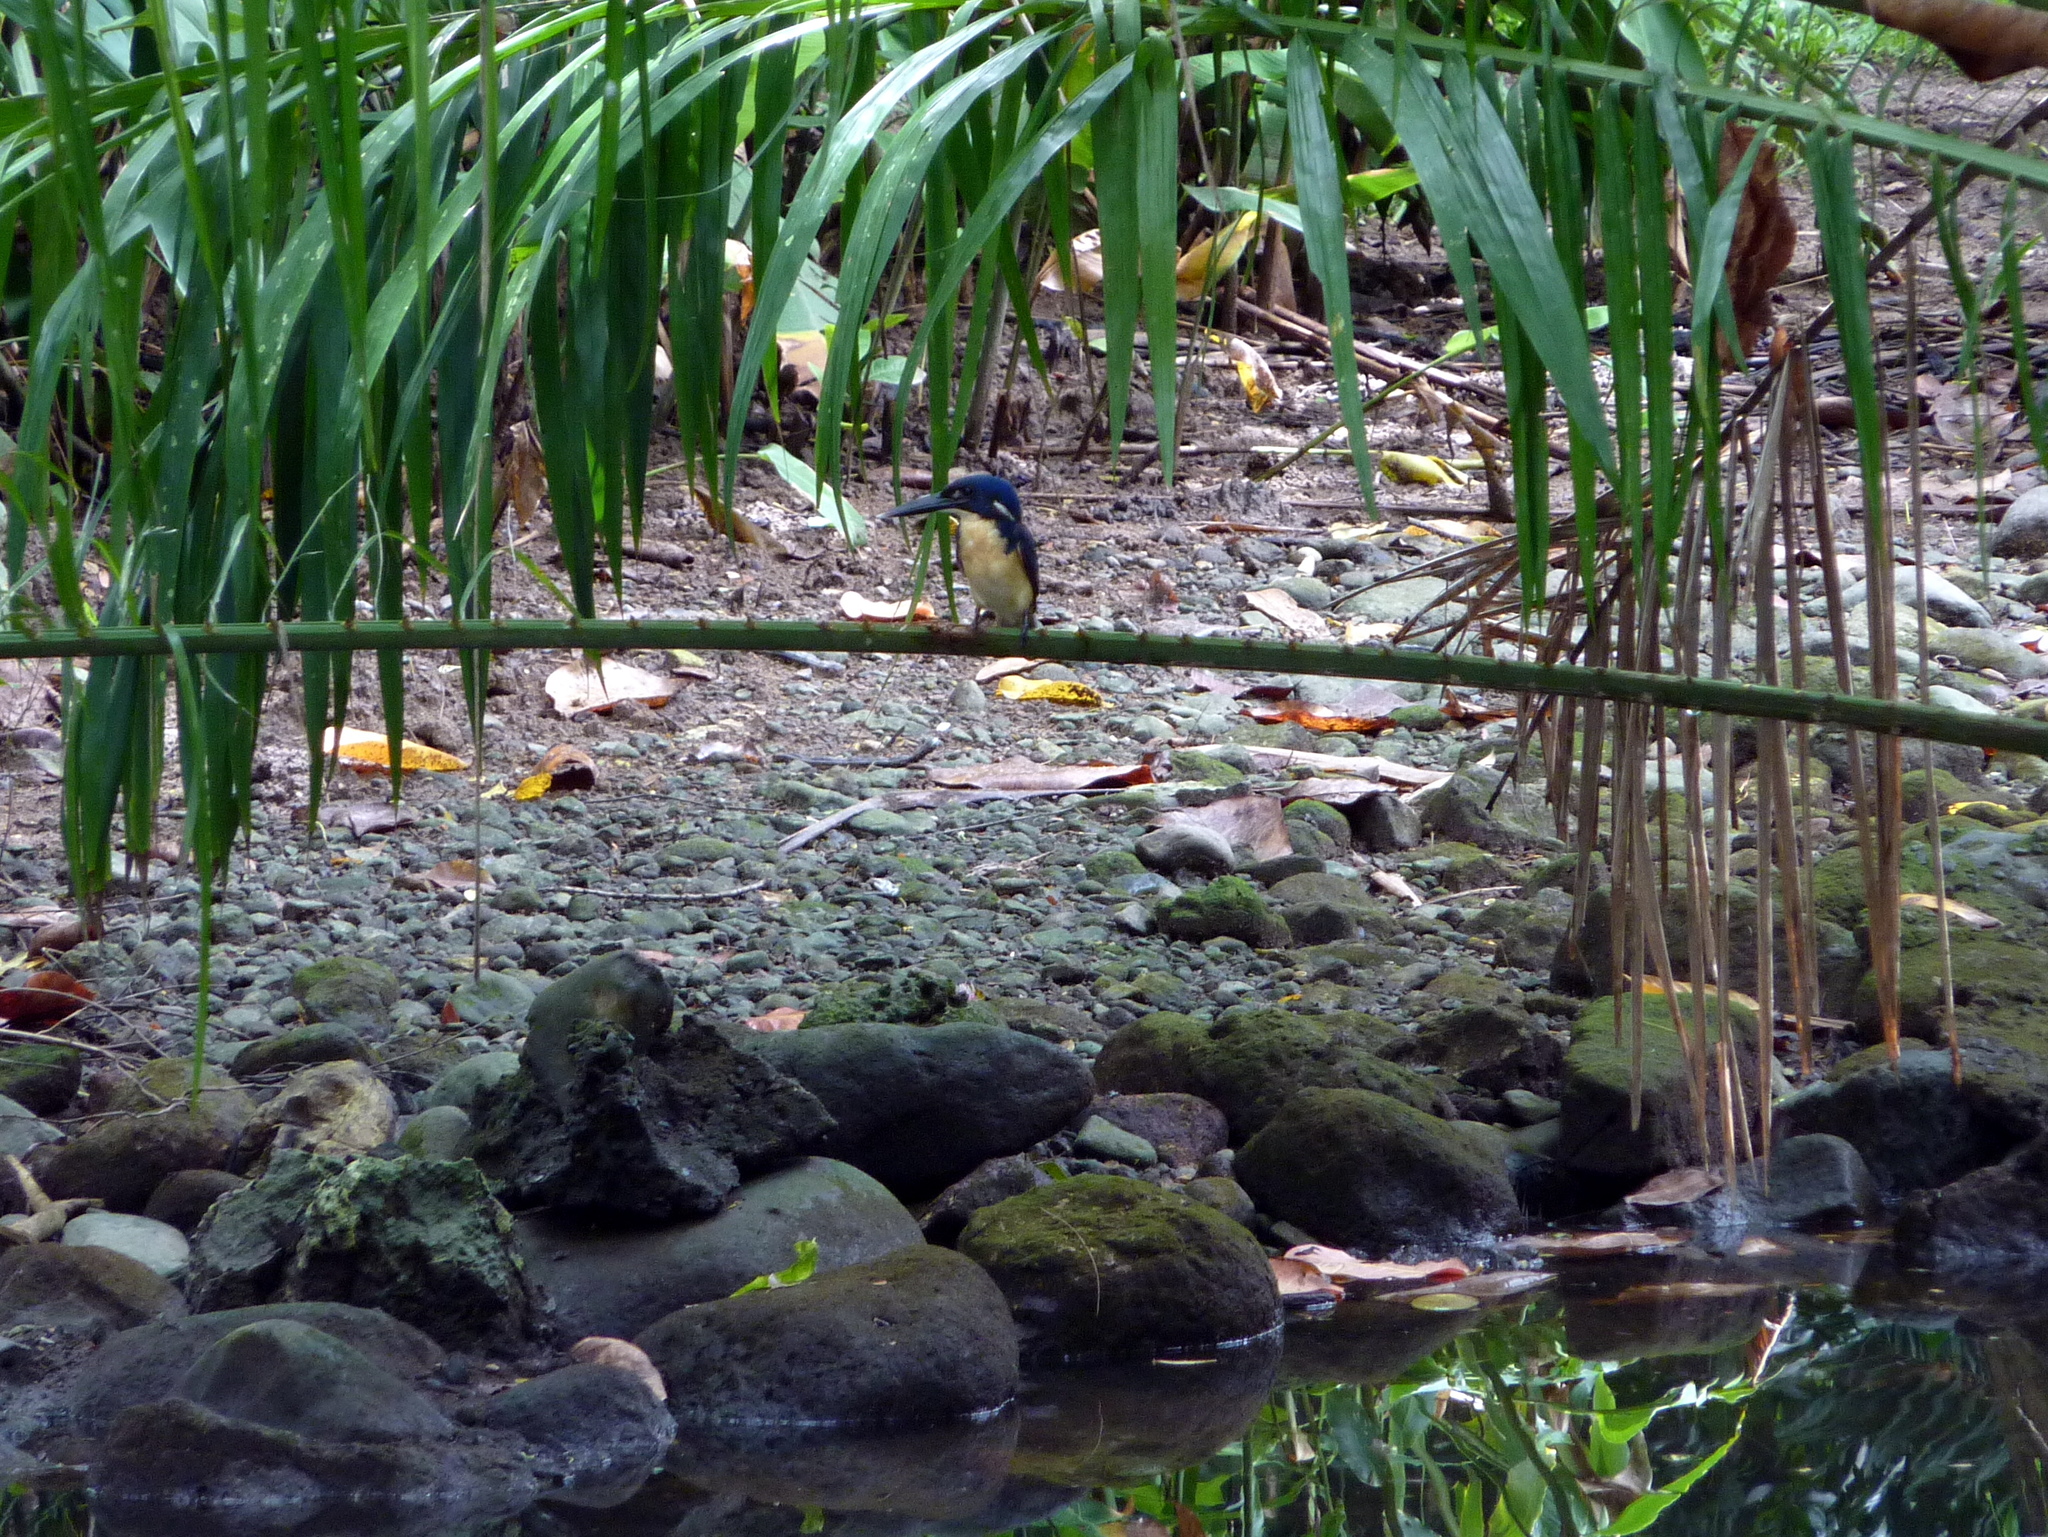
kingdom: Animalia
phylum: Chordata
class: Aves
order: Coraciiformes
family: Alcedinidae
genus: Ceyx
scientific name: Ceyx websteri
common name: Bismarck kingfisher
